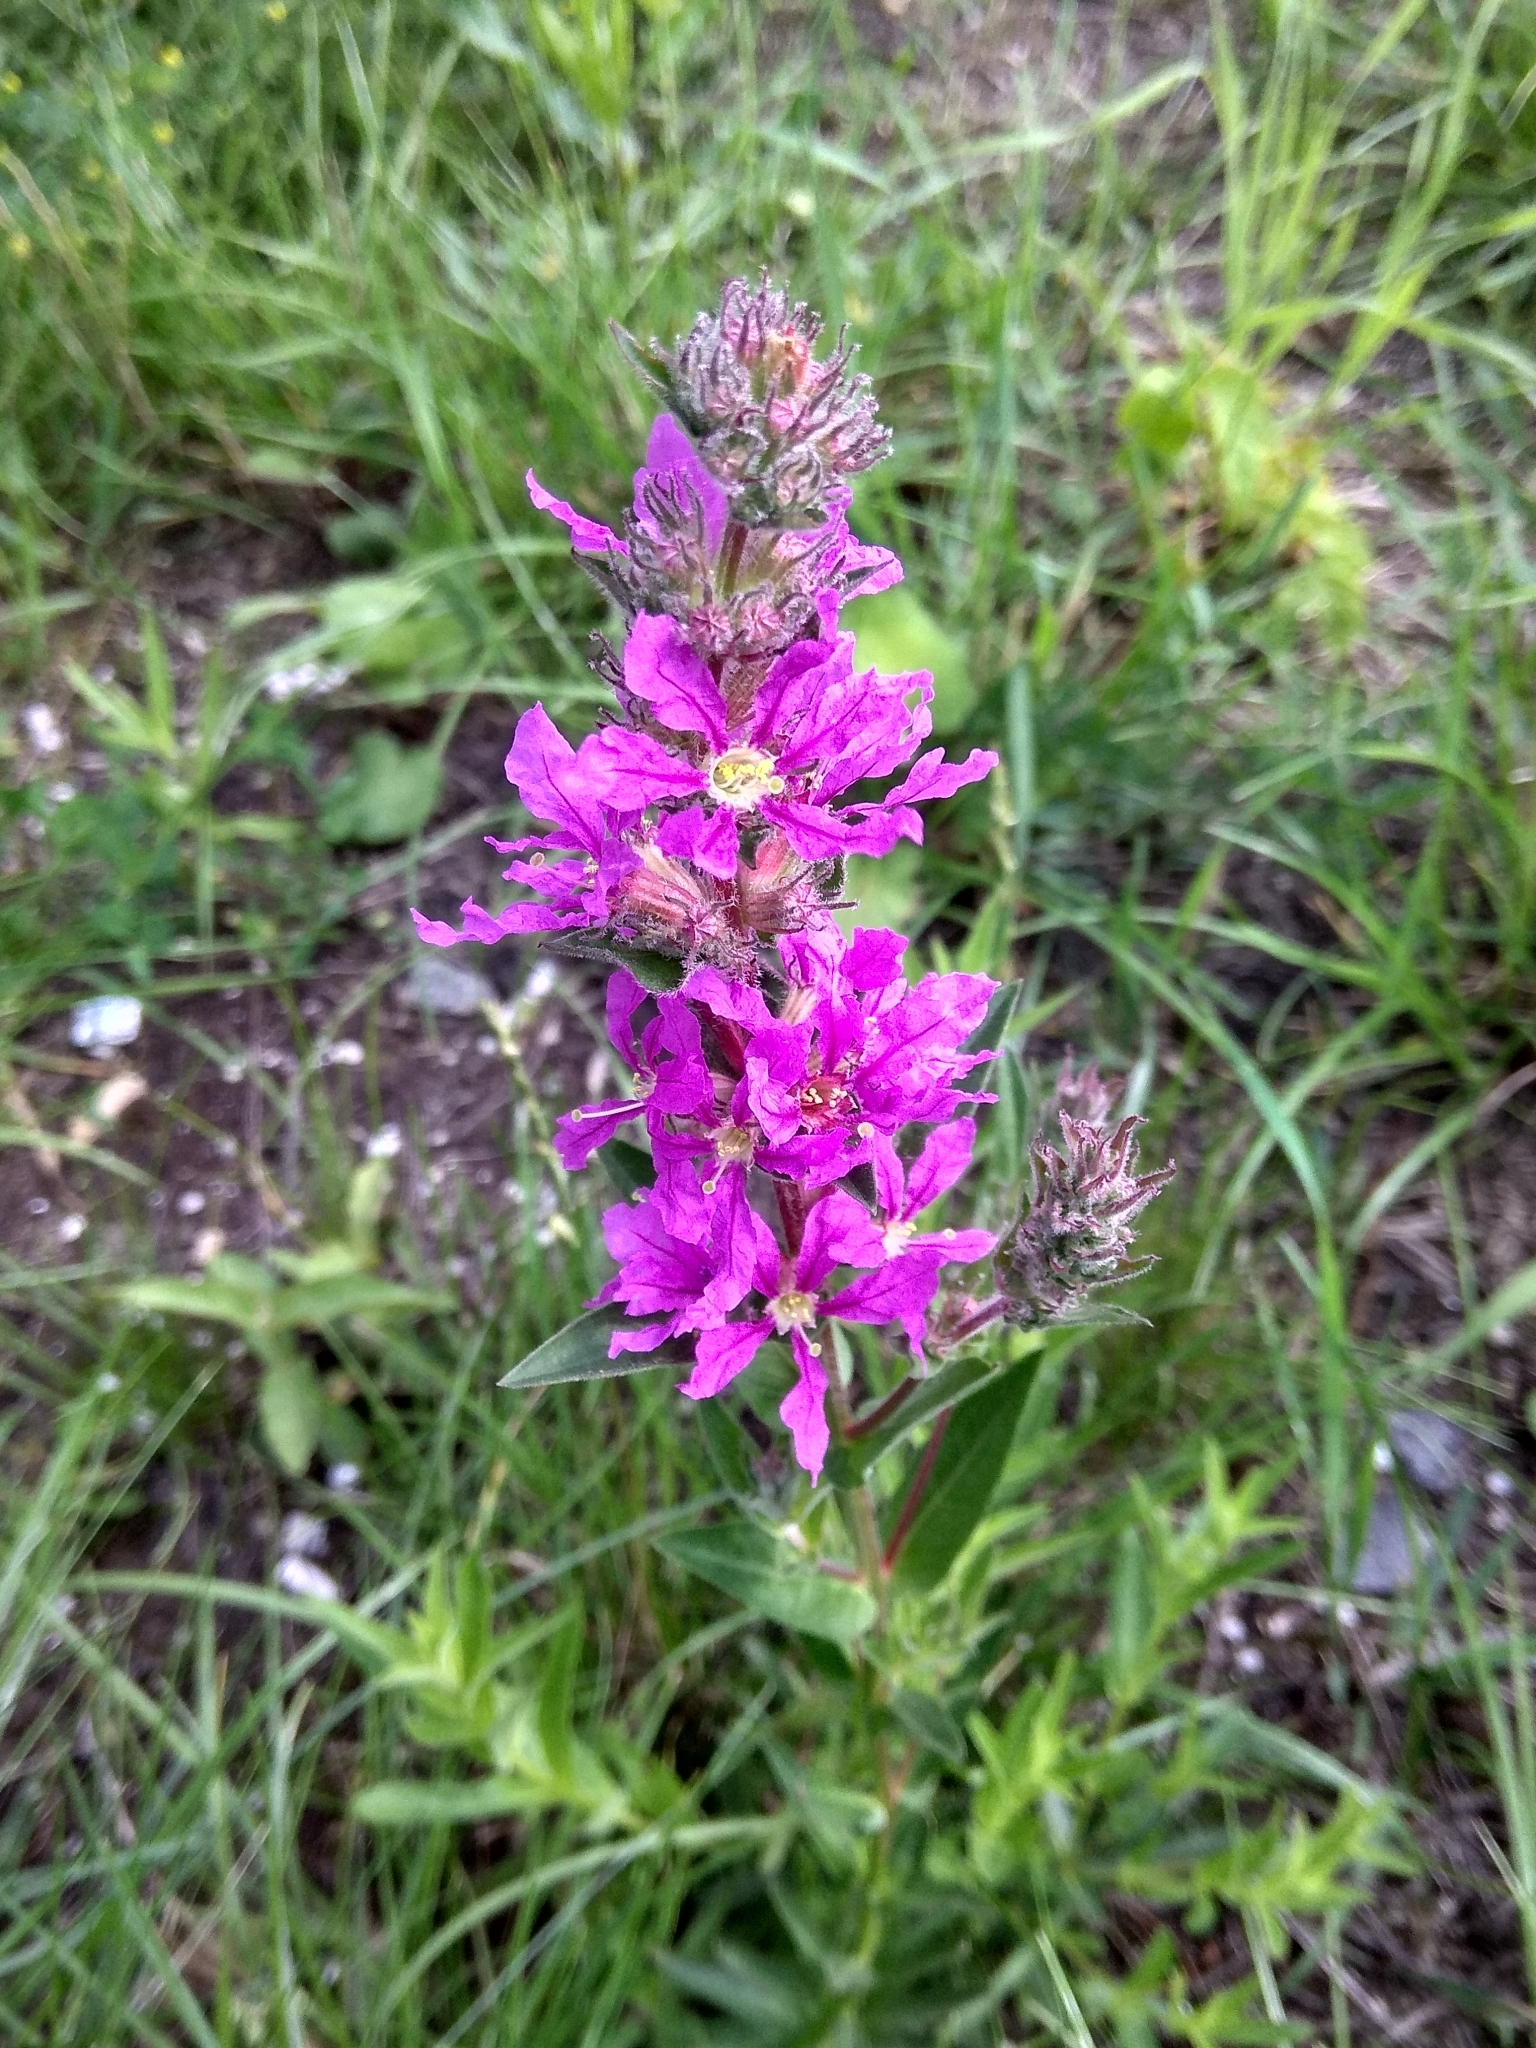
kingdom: Plantae
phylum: Tracheophyta
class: Magnoliopsida
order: Myrtales
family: Lythraceae
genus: Lythrum
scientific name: Lythrum salicaria
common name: Purple loosestrife
